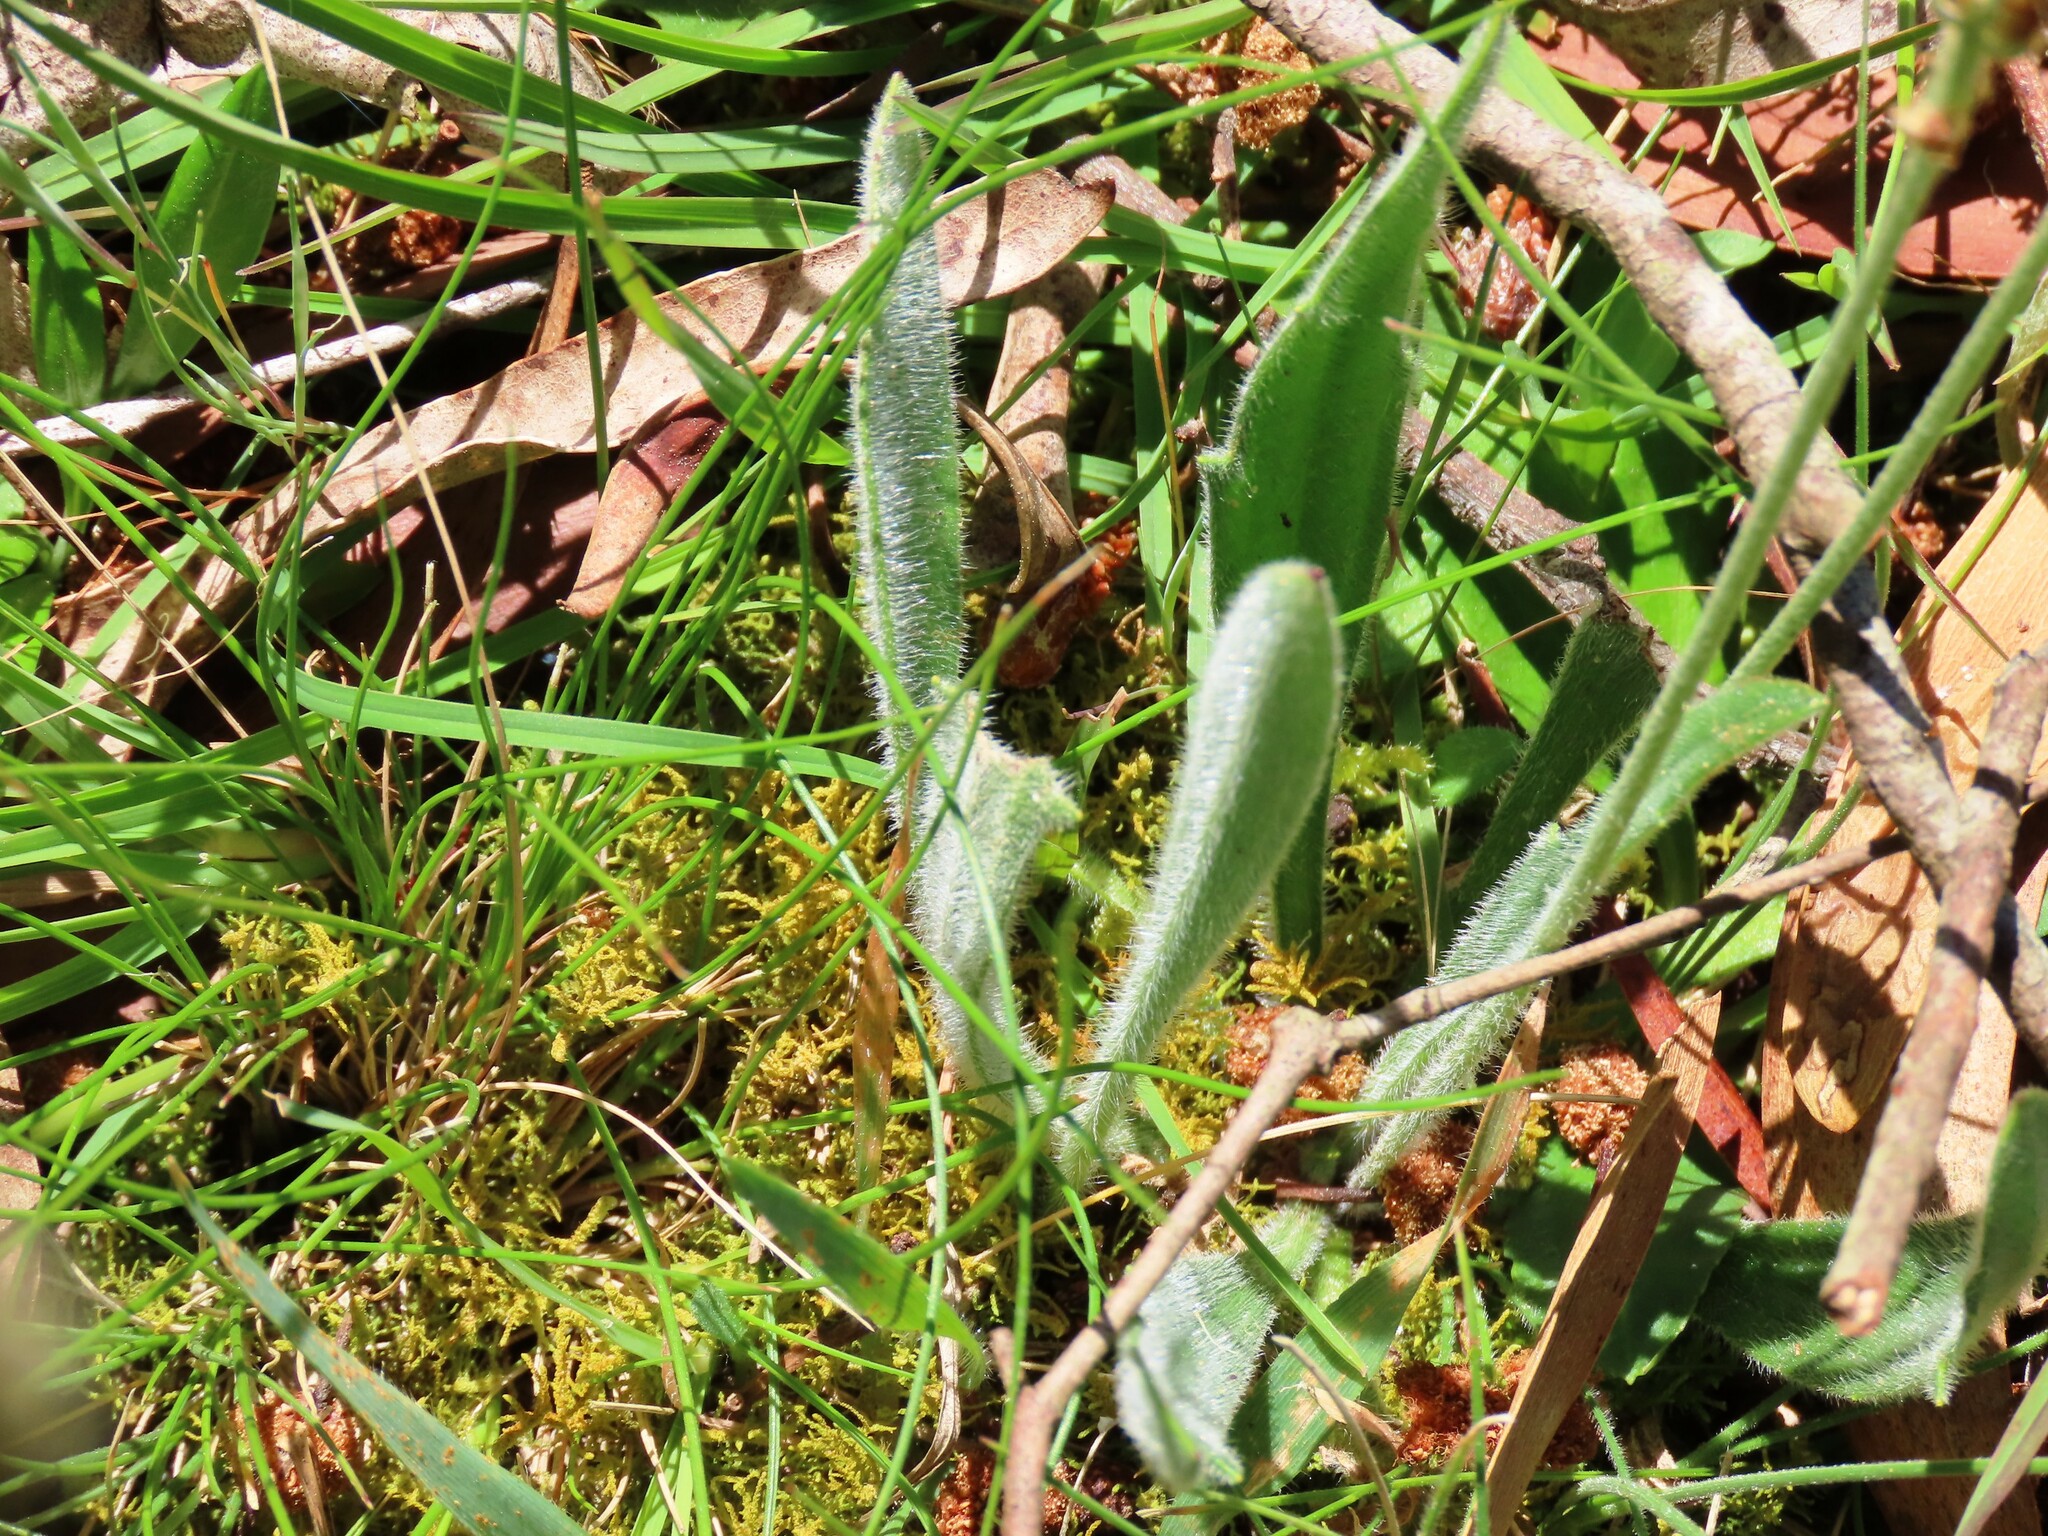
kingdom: Plantae
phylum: Tracheophyta
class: Magnoliopsida
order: Lamiales
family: Plantaginaceae
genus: Plantago
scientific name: Plantago varia
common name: Variable plantain
